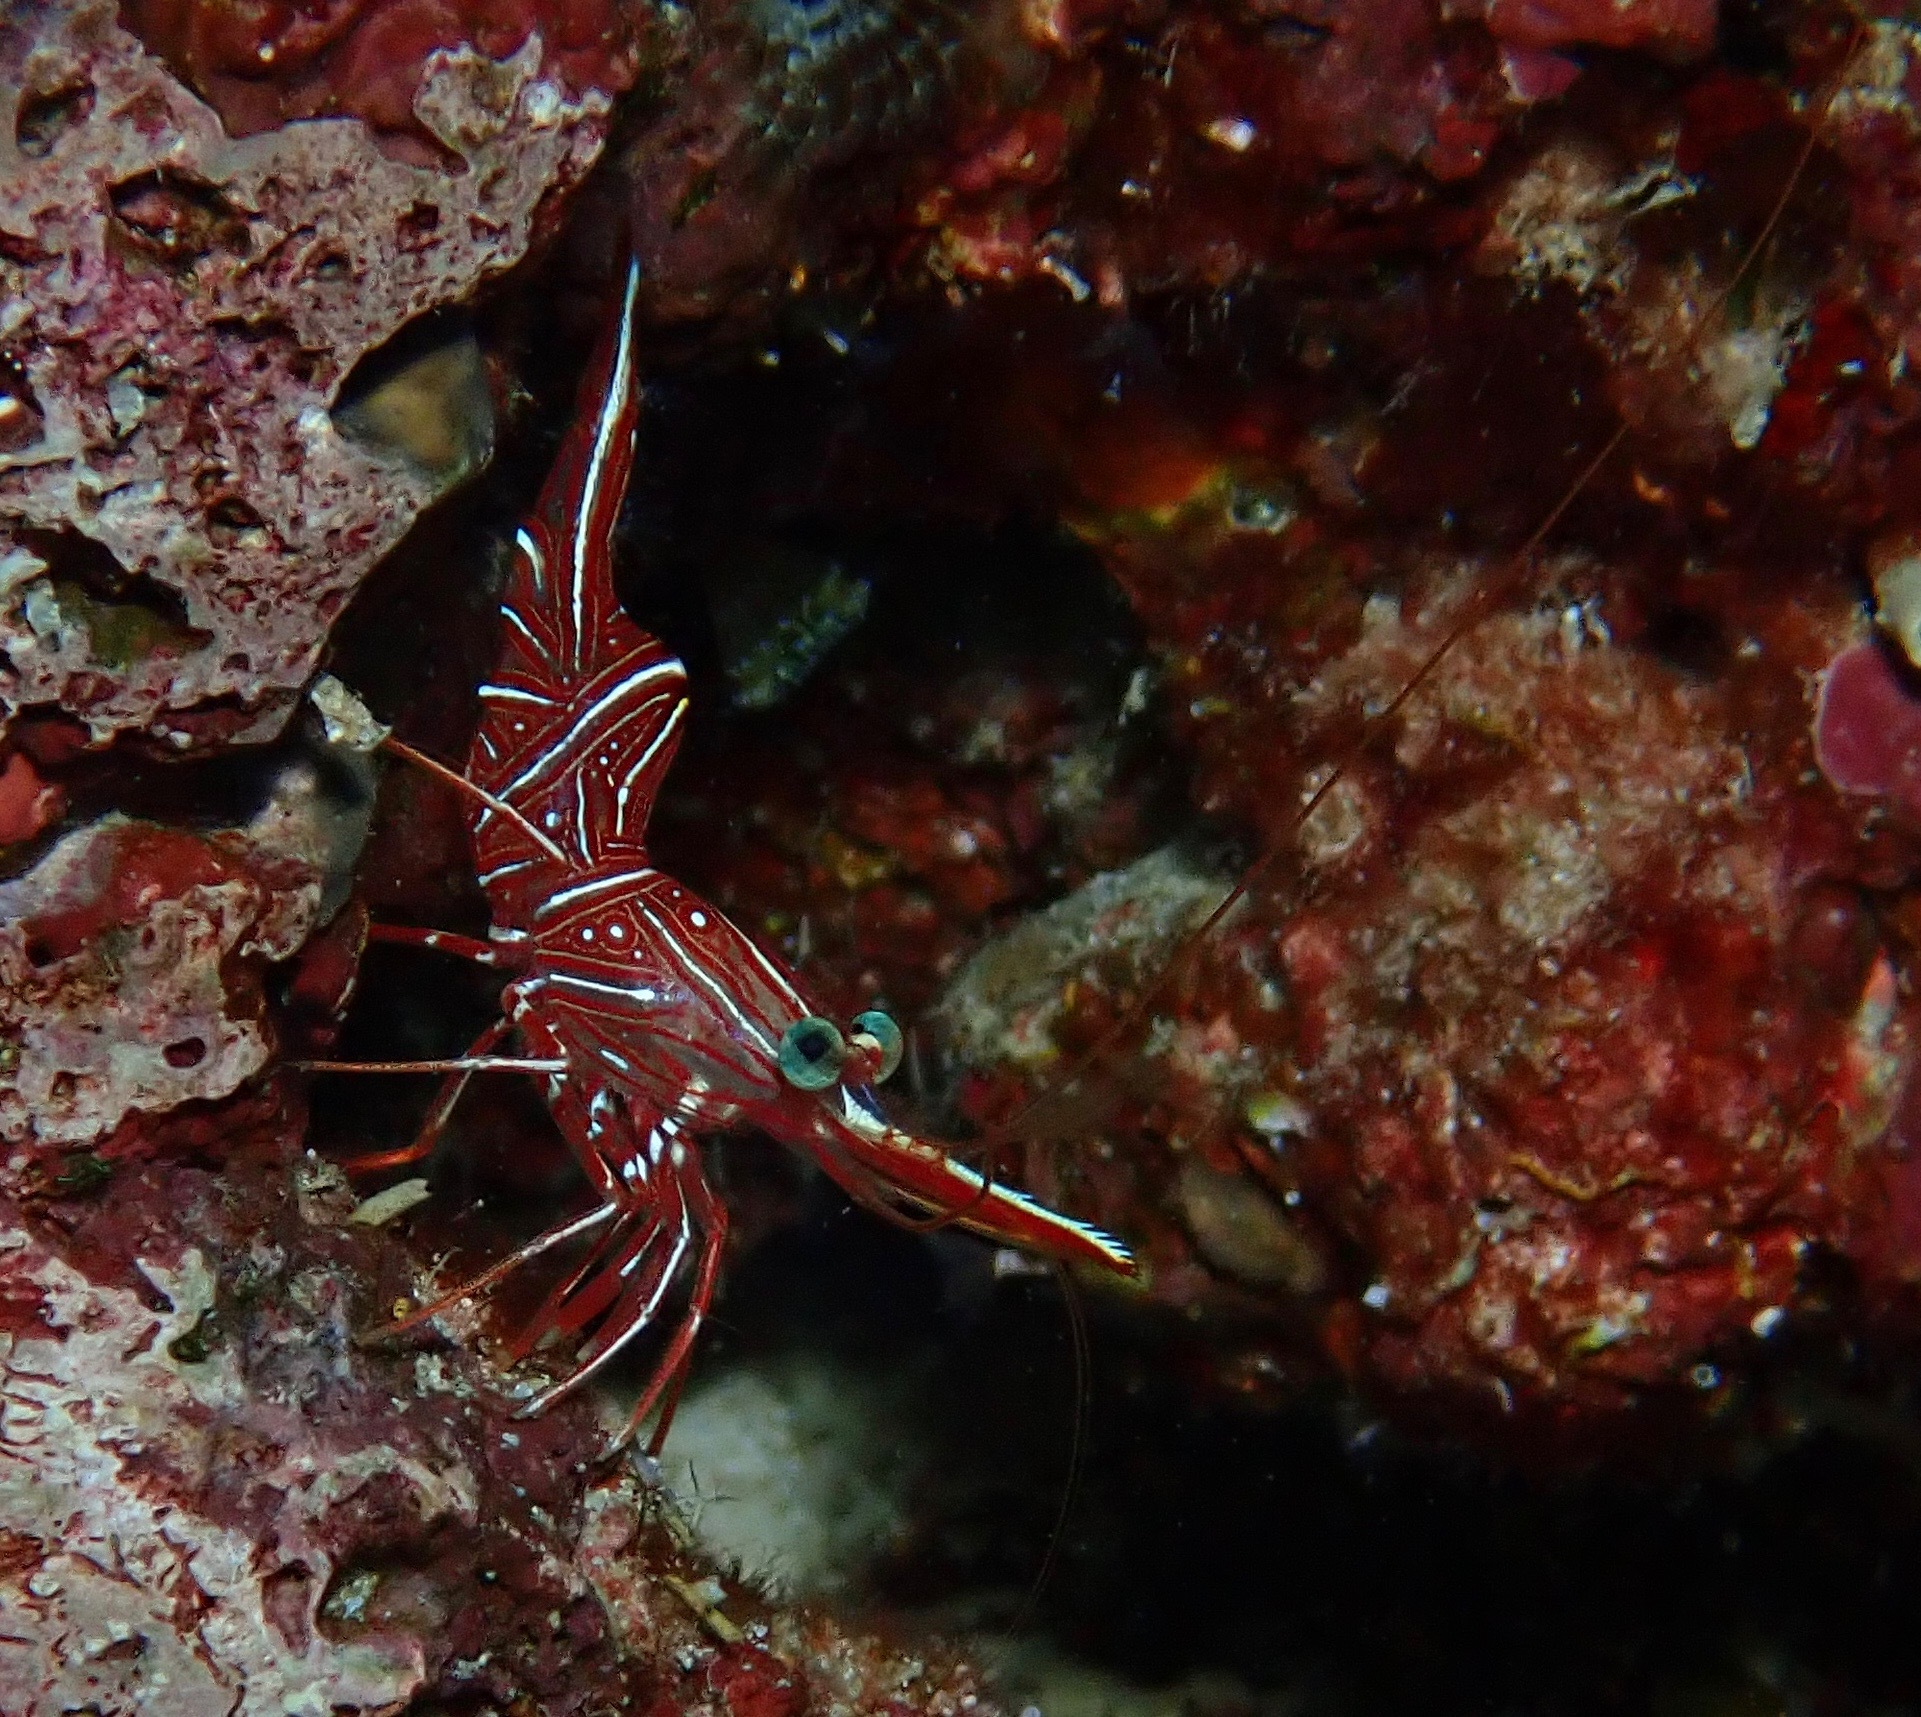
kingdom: Animalia
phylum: Arthropoda
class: Malacostraca
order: Decapoda
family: Rhynchocinetidae
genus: Rhynchocinetes
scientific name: Rhynchocinetes durbanensis
